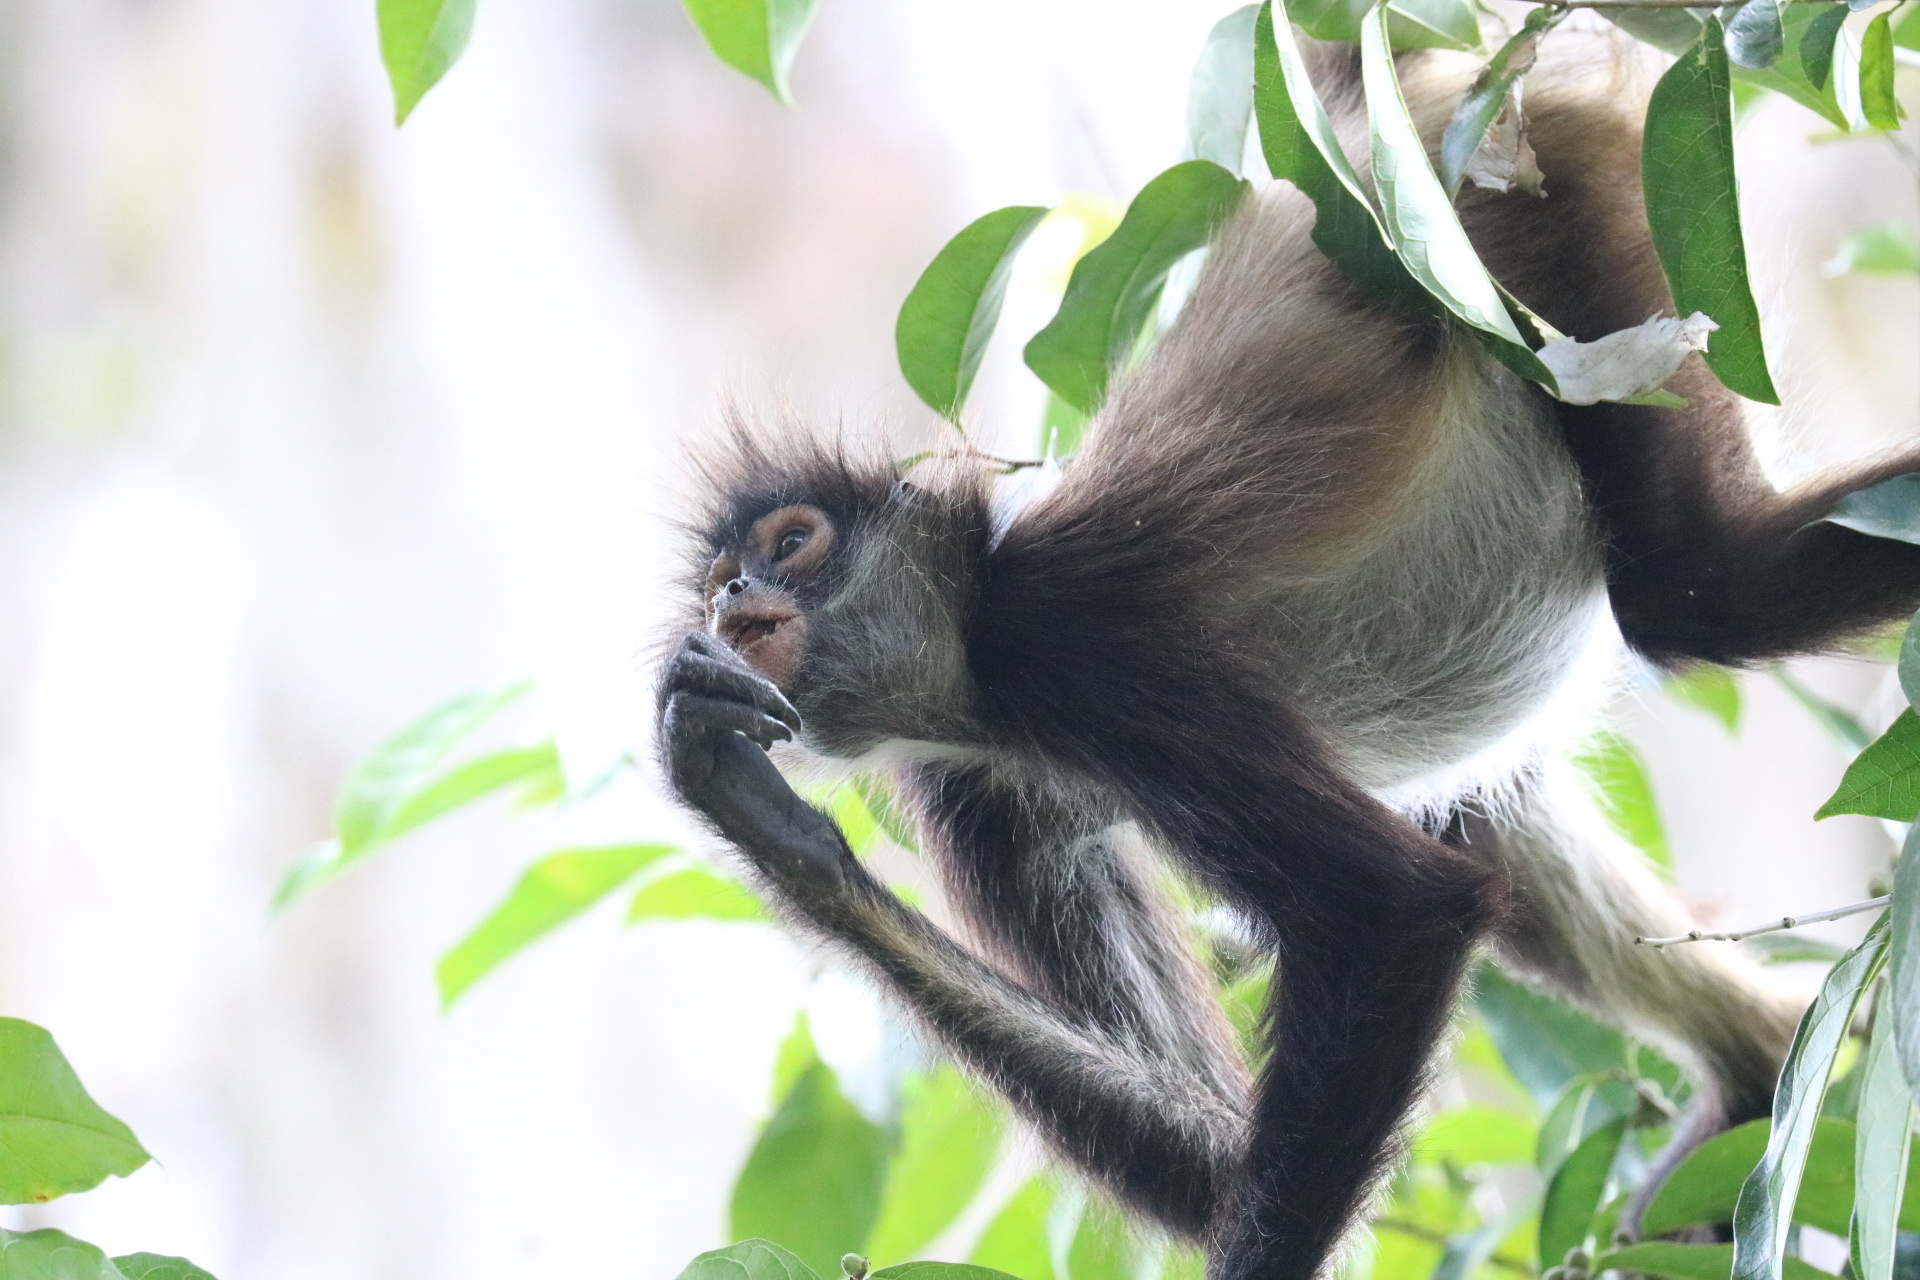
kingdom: Animalia
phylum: Chordata
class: Mammalia
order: Primates
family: Atelidae
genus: Ateles
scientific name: Ateles geoffroyi
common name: Black-handed spider monkey
